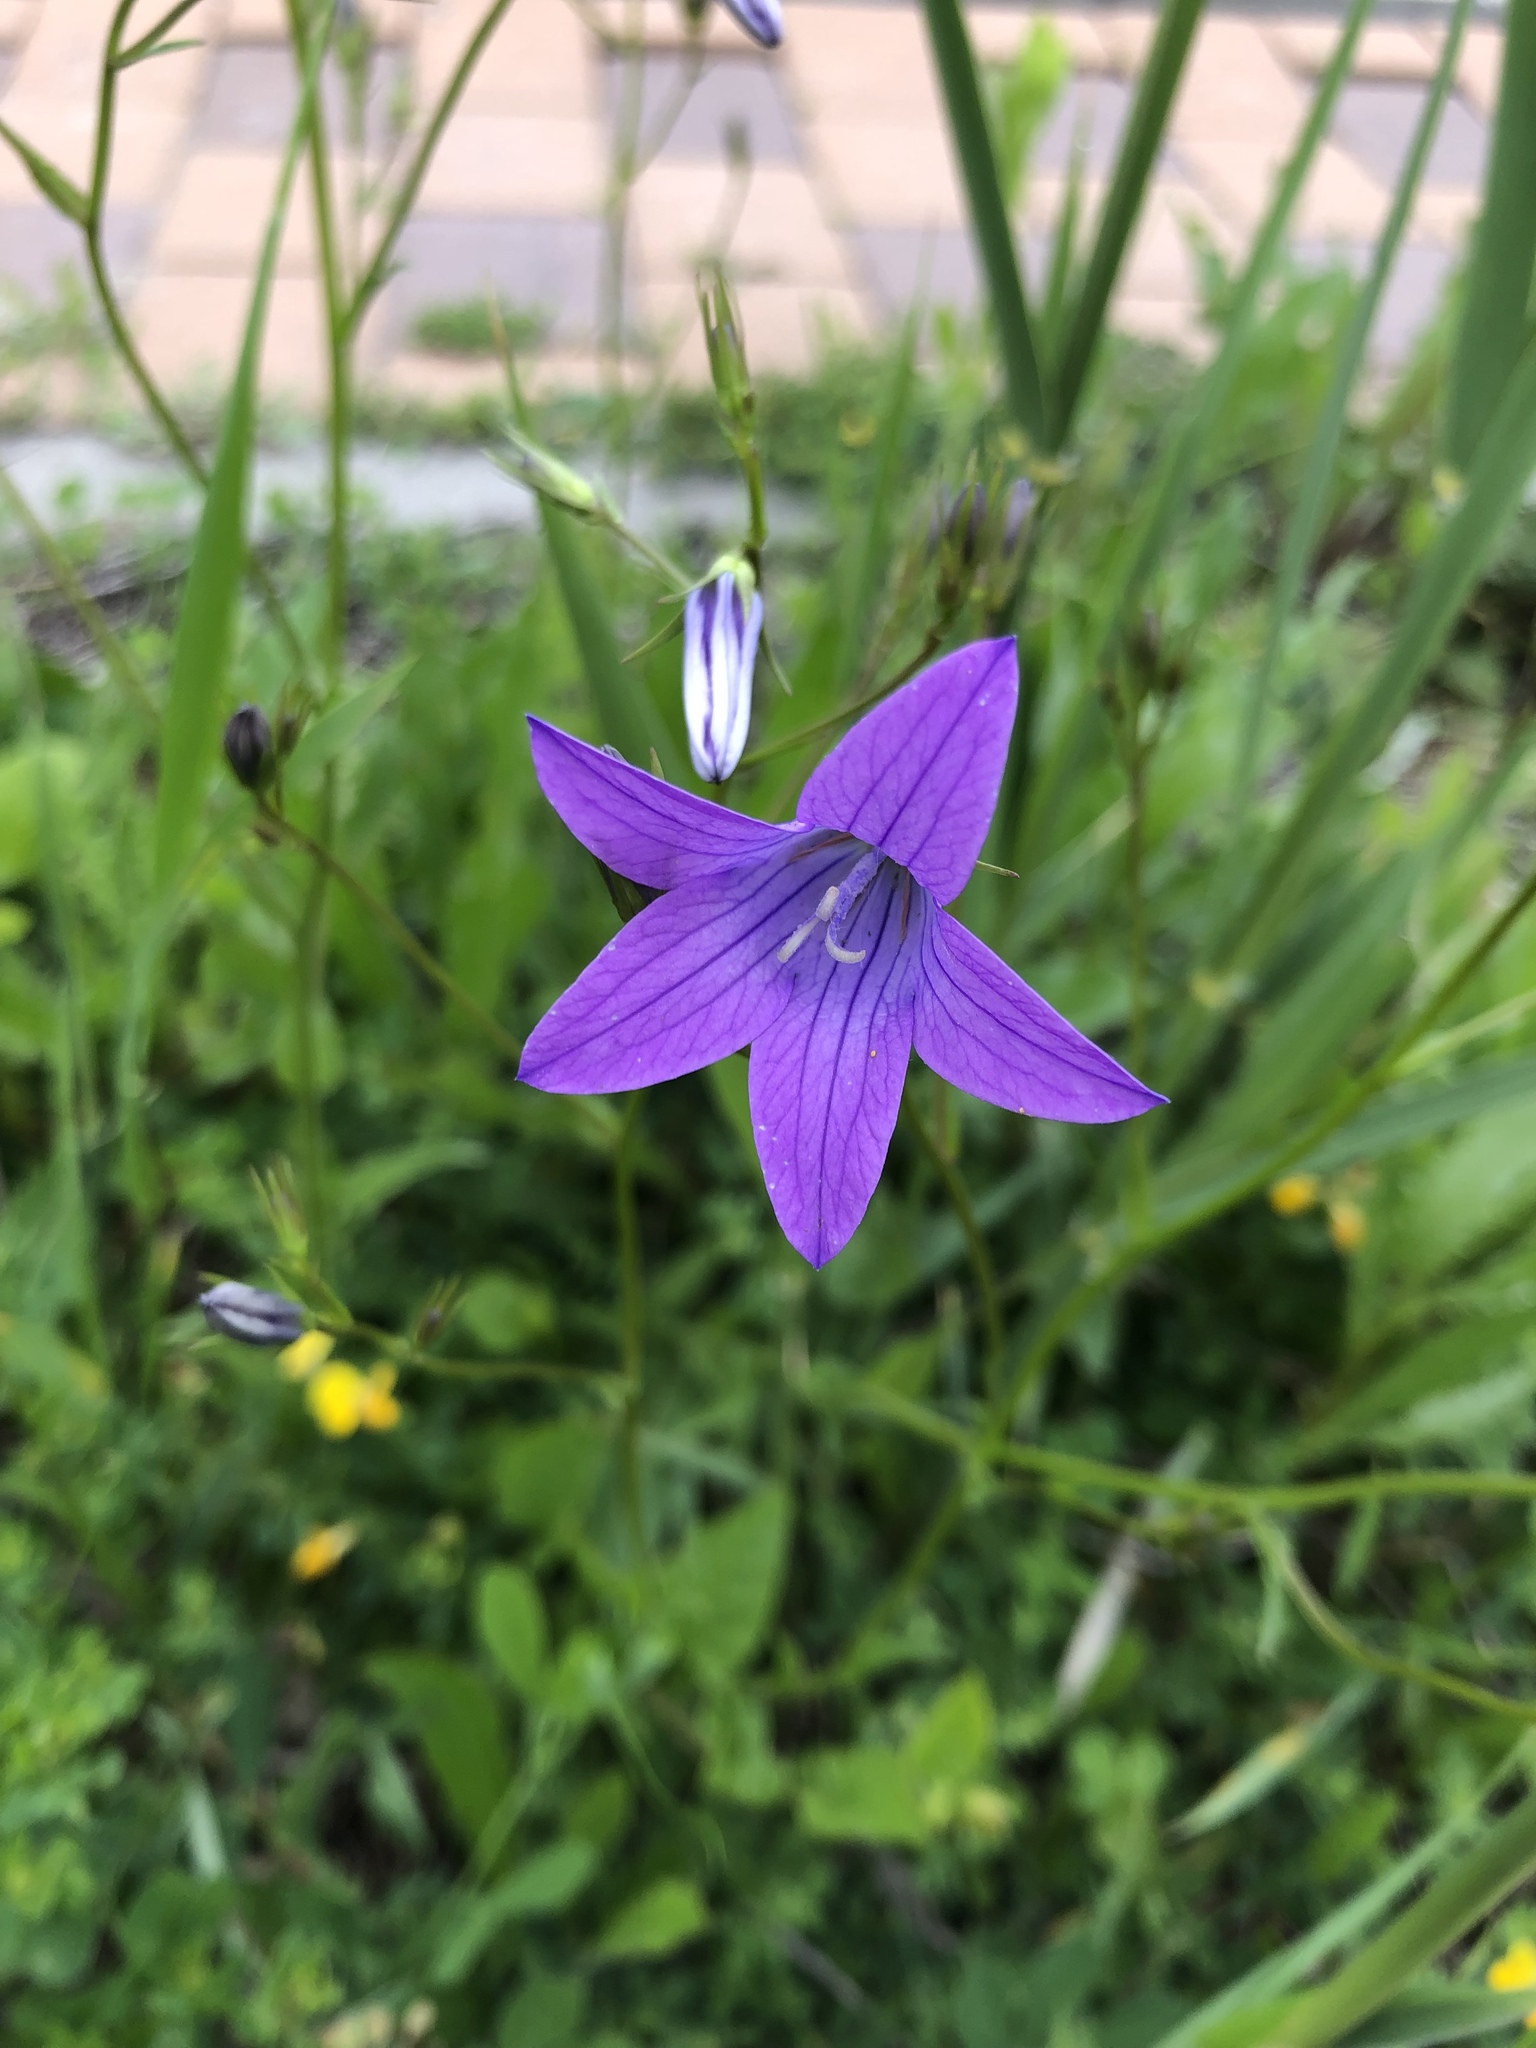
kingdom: Plantae
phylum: Tracheophyta
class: Magnoliopsida
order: Asterales
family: Campanulaceae
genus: Campanula
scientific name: Campanula patula
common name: Spreading bellflower
